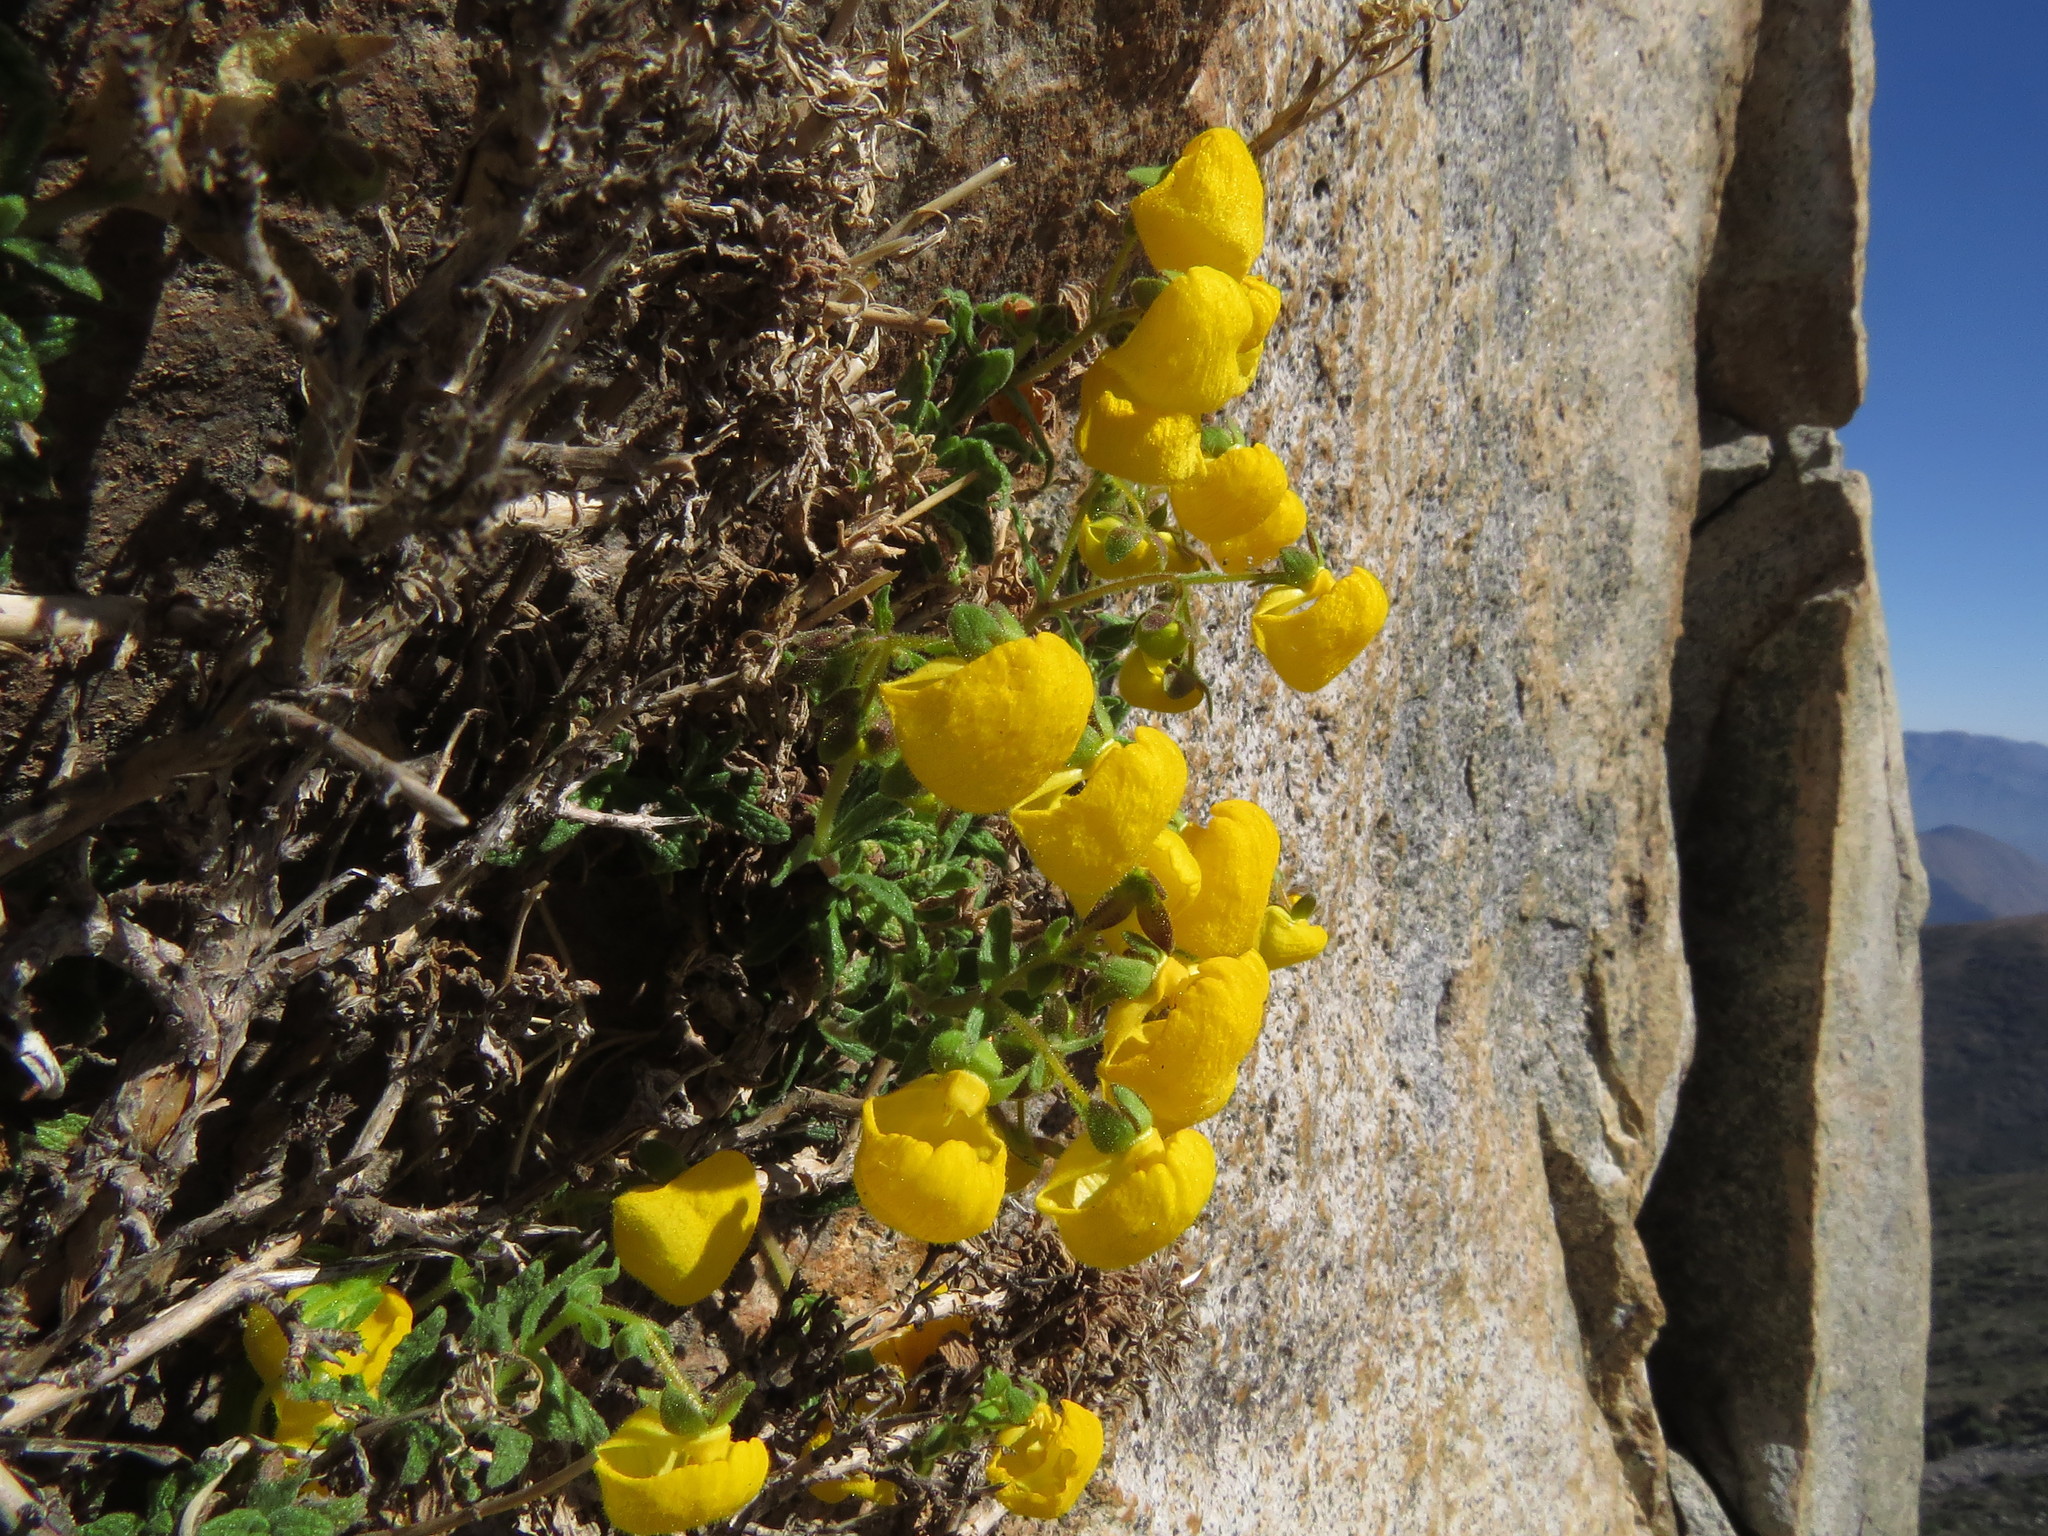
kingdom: Plantae
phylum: Tracheophyta
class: Magnoliopsida
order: Lamiales
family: Calceolariaceae
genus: Calceolaria
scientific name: Calceolaria ascendens
